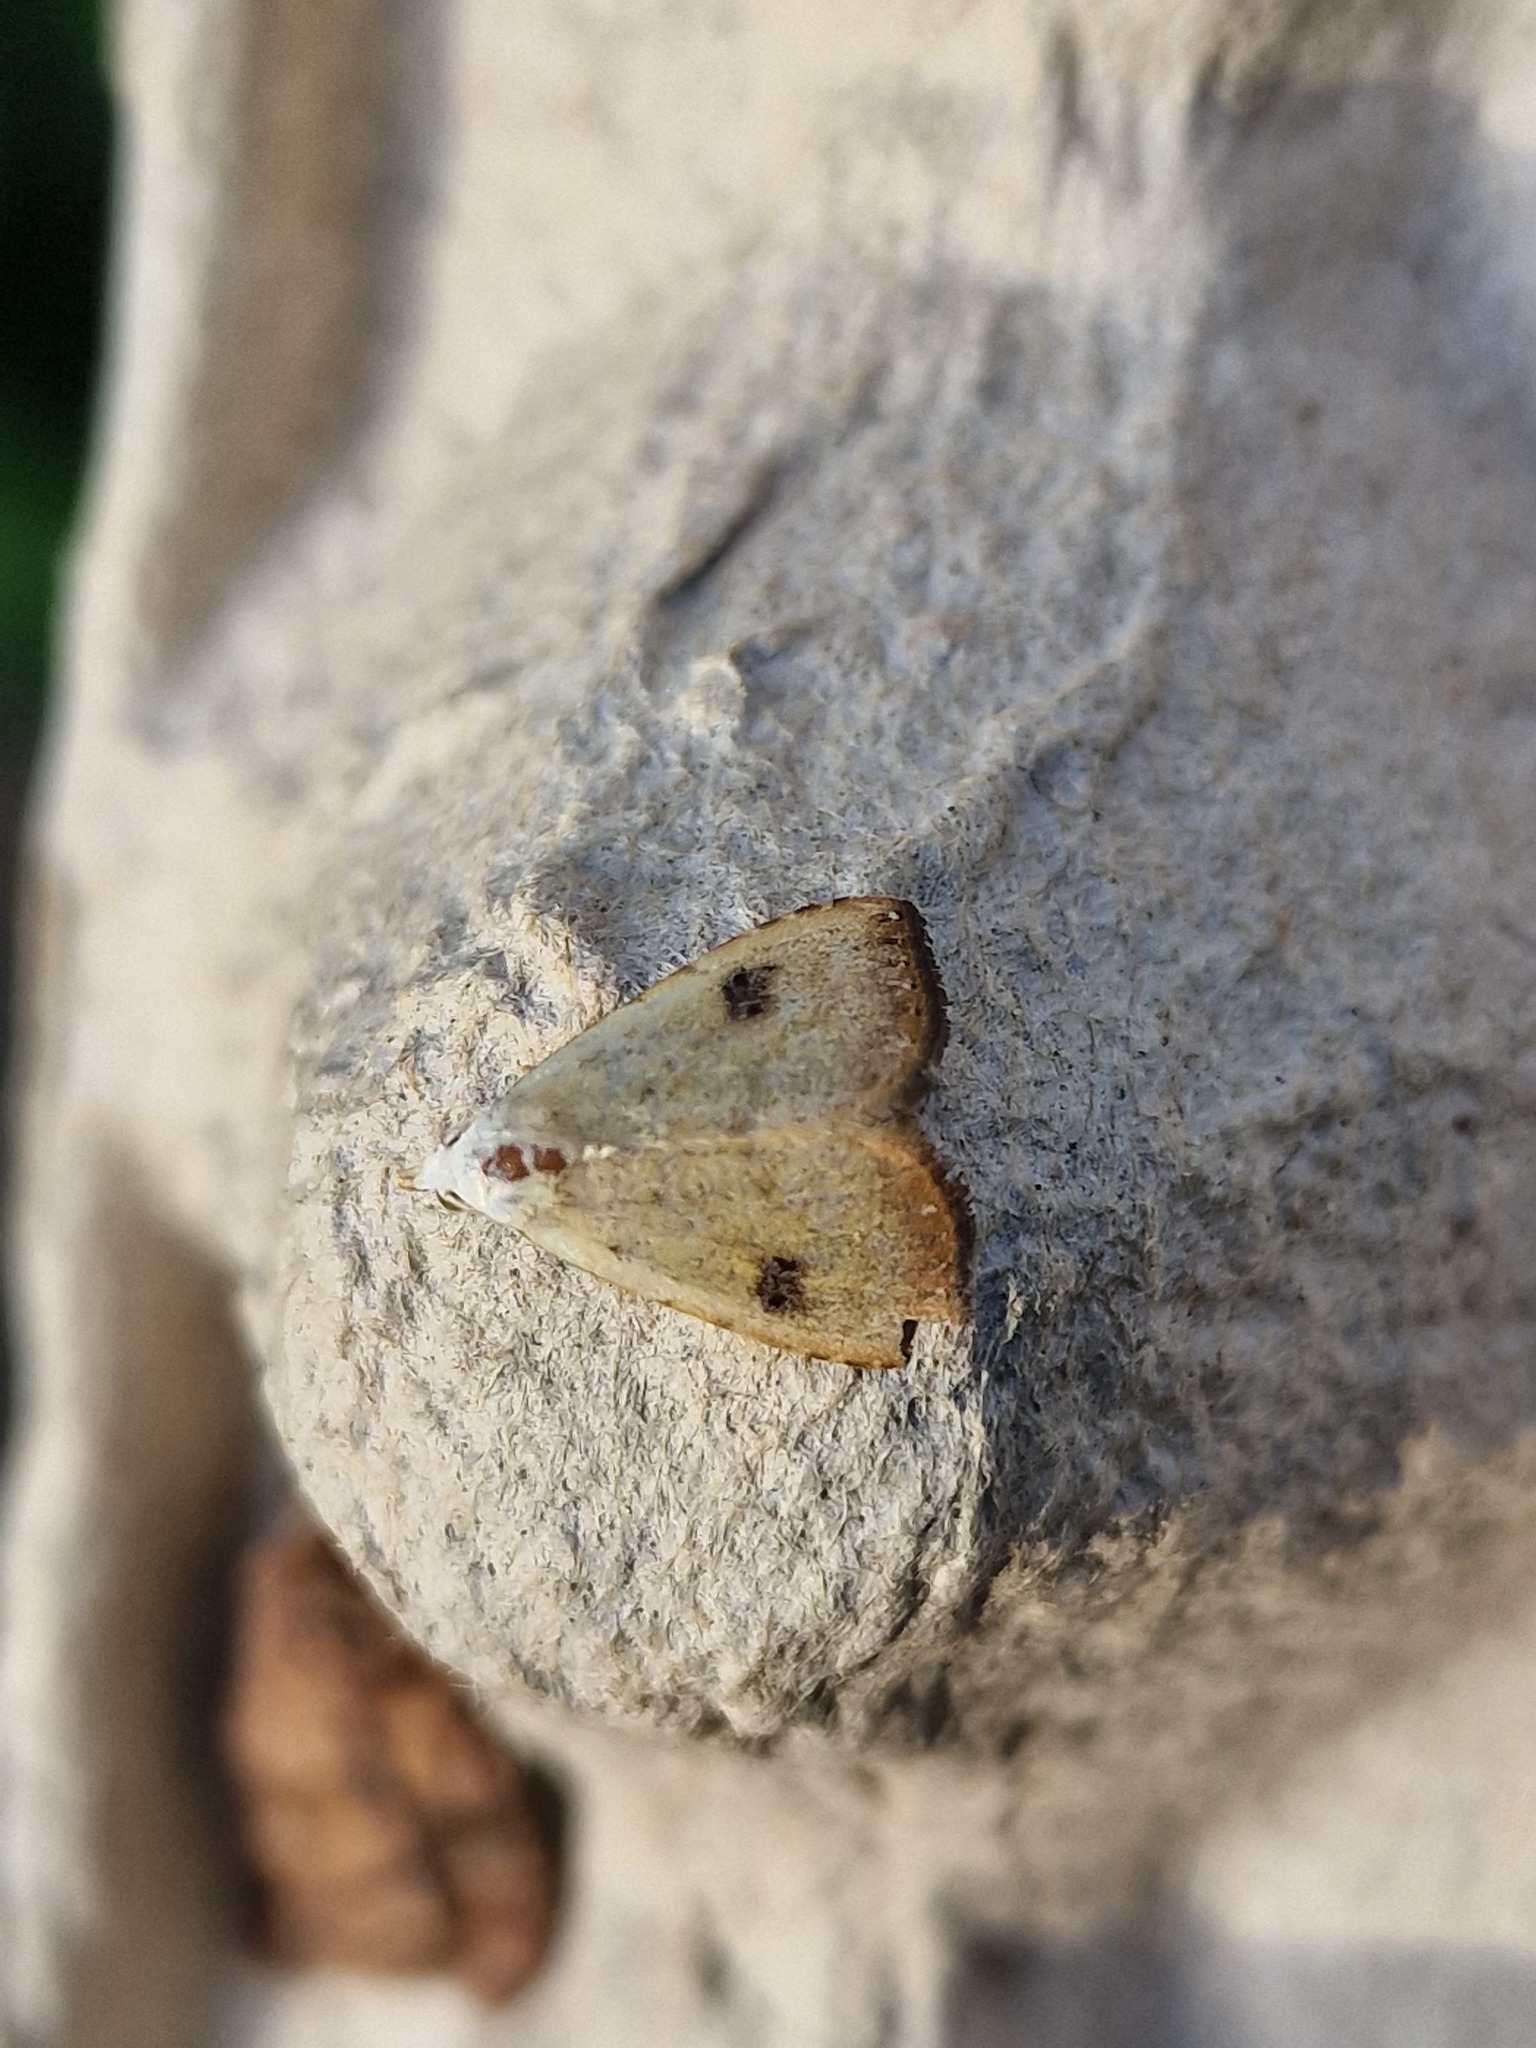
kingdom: Animalia
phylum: Arthropoda
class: Insecta
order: Lepidoptera
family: Erebidae
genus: Rivula
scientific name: Rivula sericealis
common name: Straw dot
